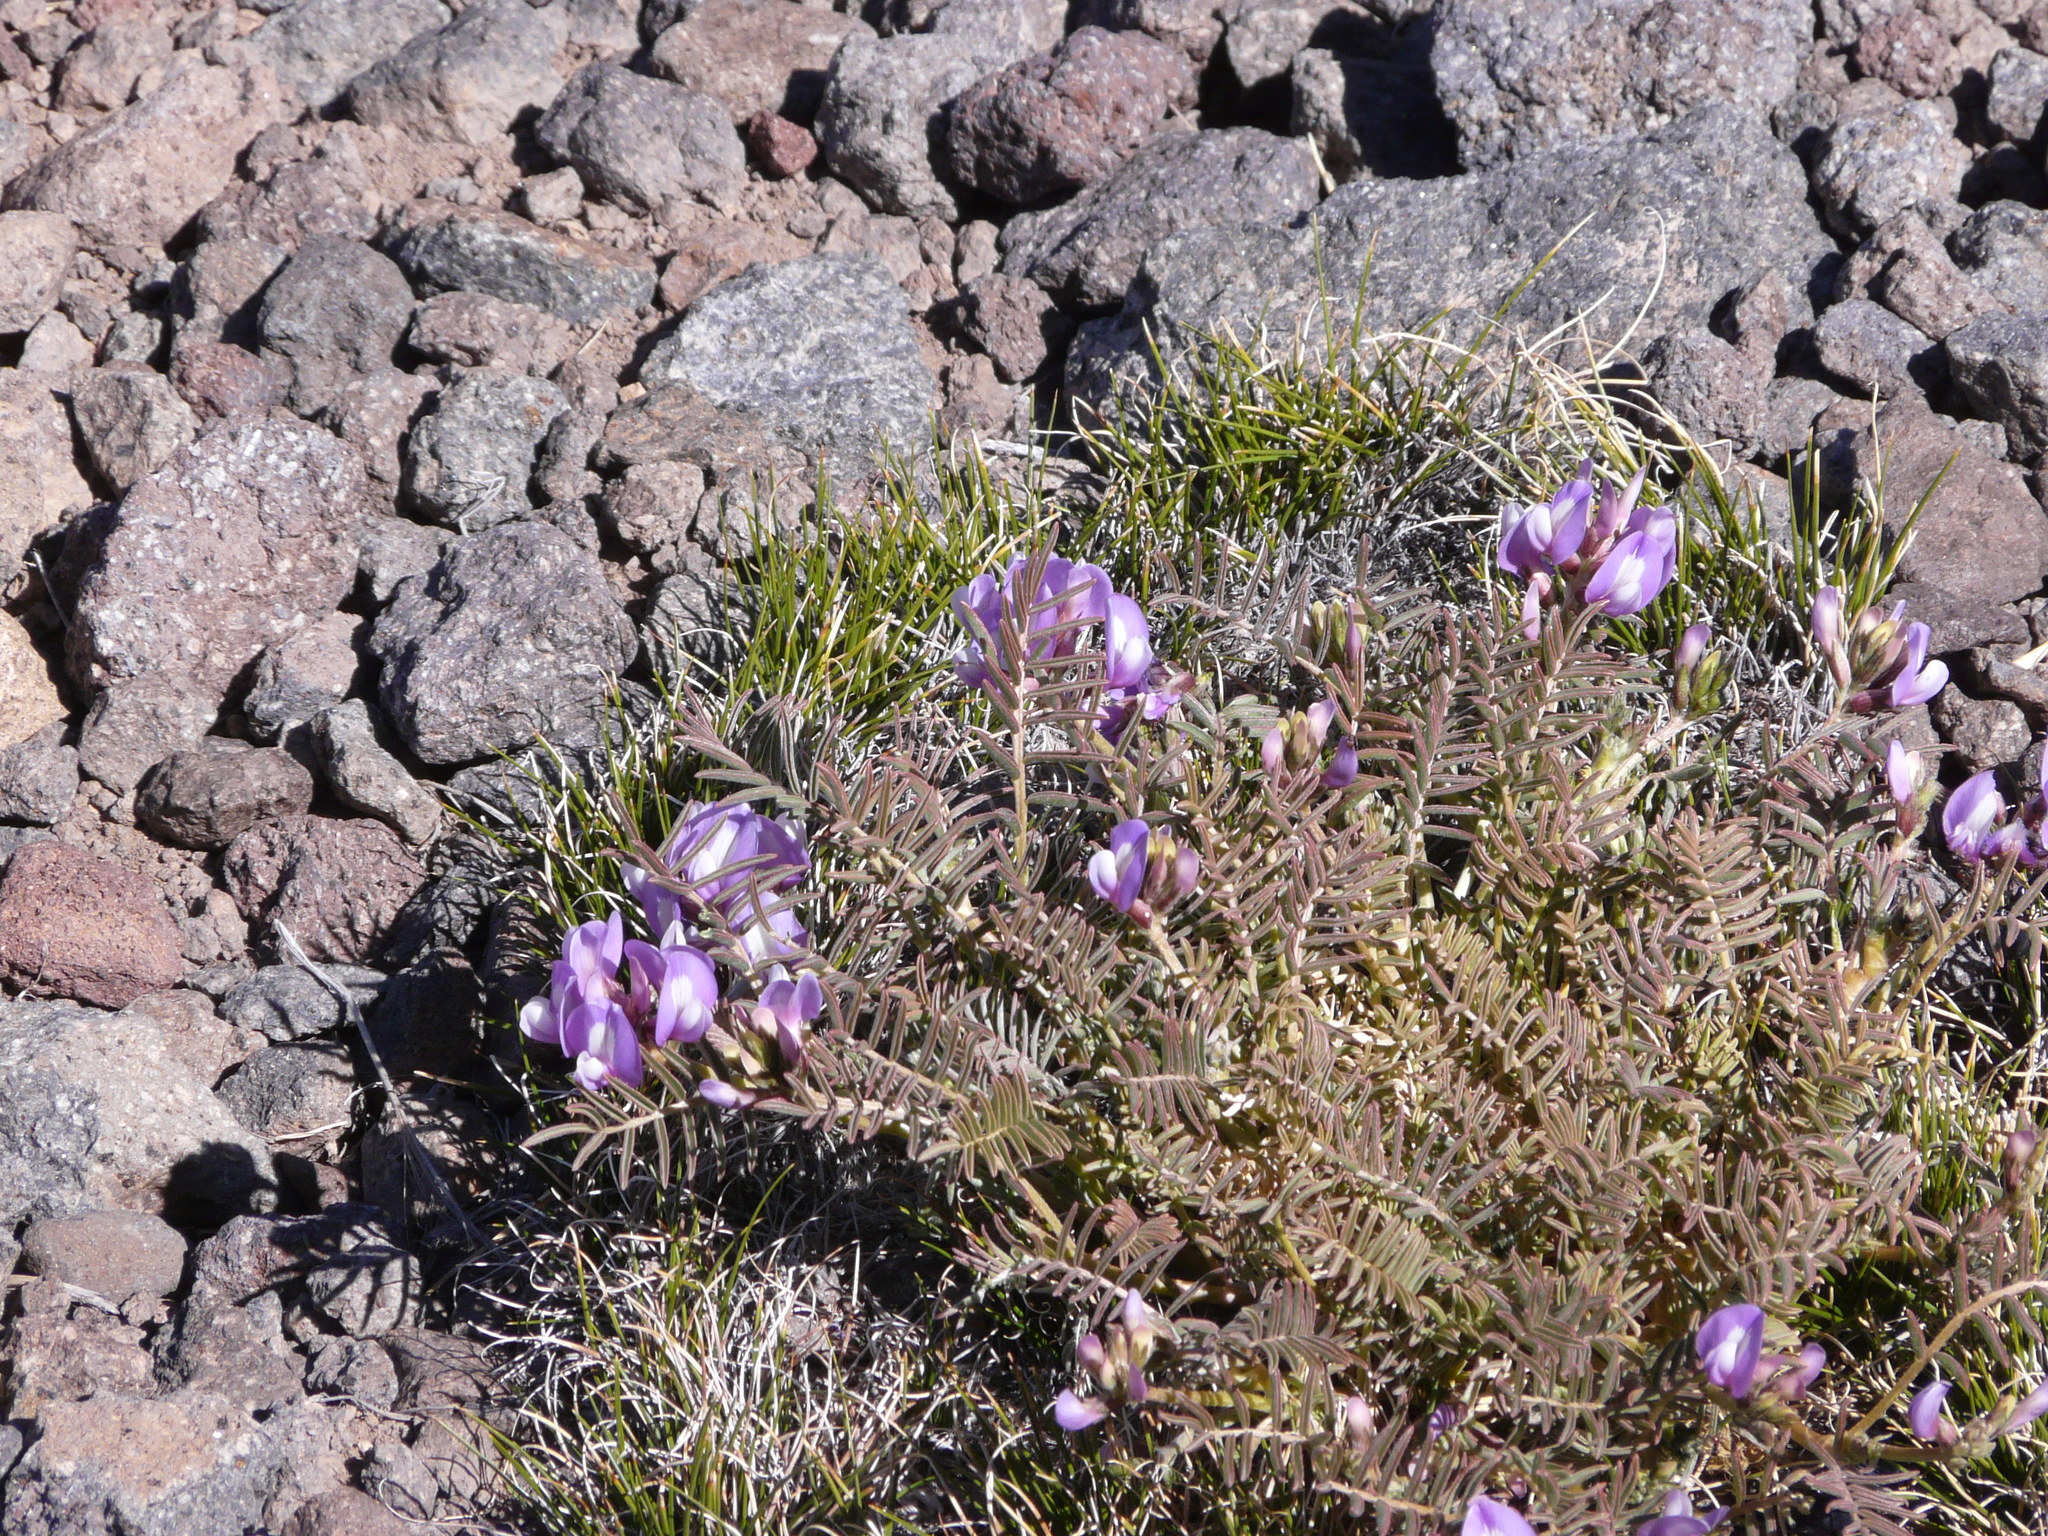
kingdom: Plantae
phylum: Tracheophyta
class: Magnoliopsida
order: Fabales
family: Fabaceae
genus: Astragalus
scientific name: Astragalus cruckshanksii
